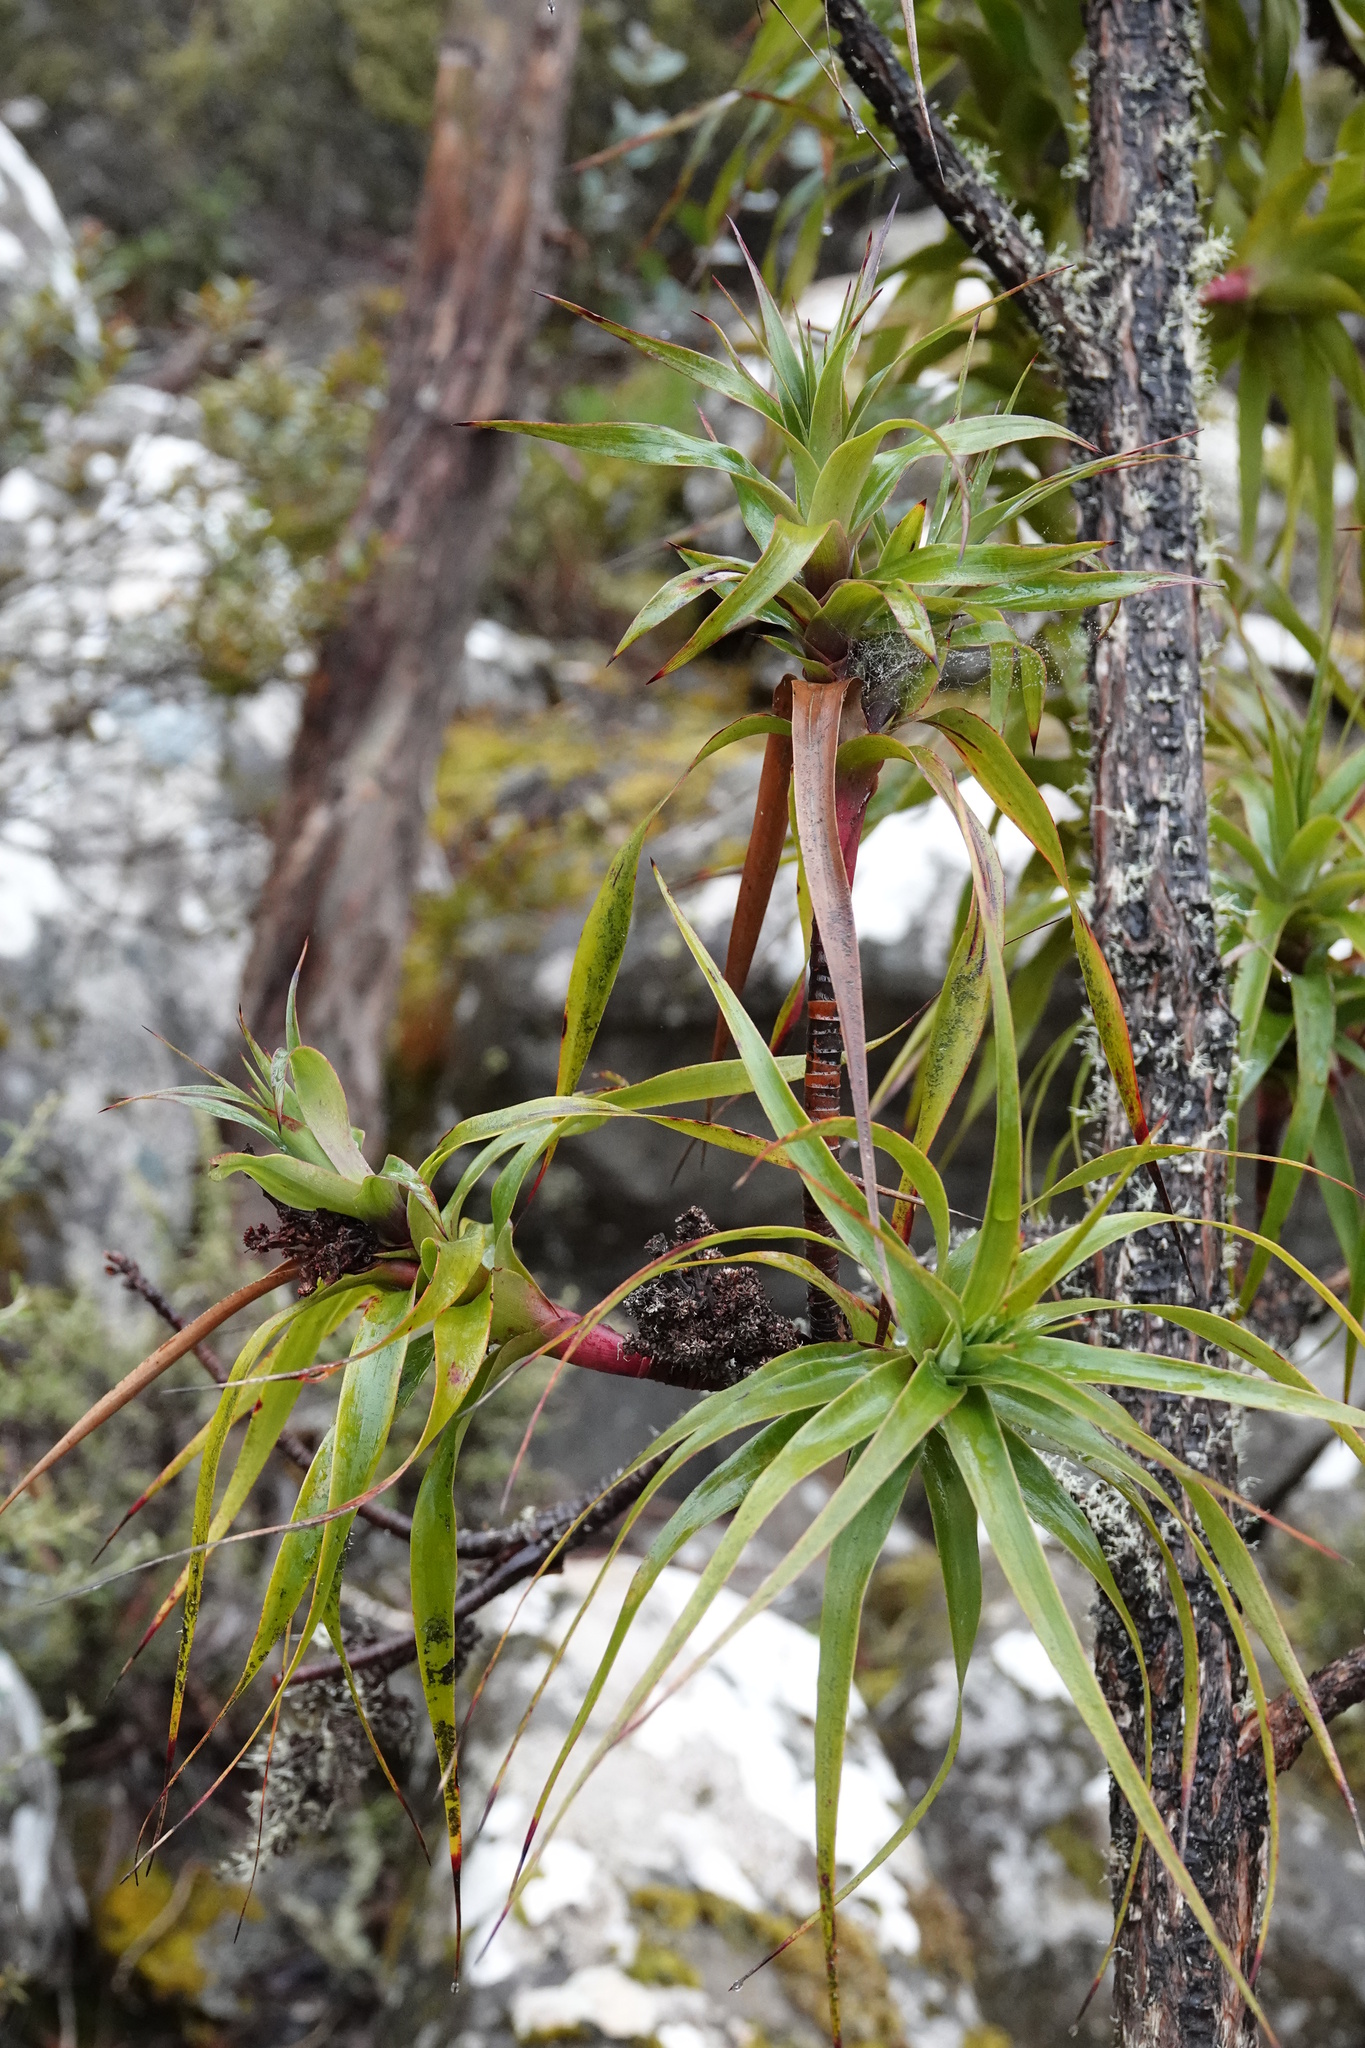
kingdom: Plantae
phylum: Tracheophyta
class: Magnoliopsida
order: Ericales
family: Ericaceae
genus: Dracophyllum
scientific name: Dracophyllum desgrazii
